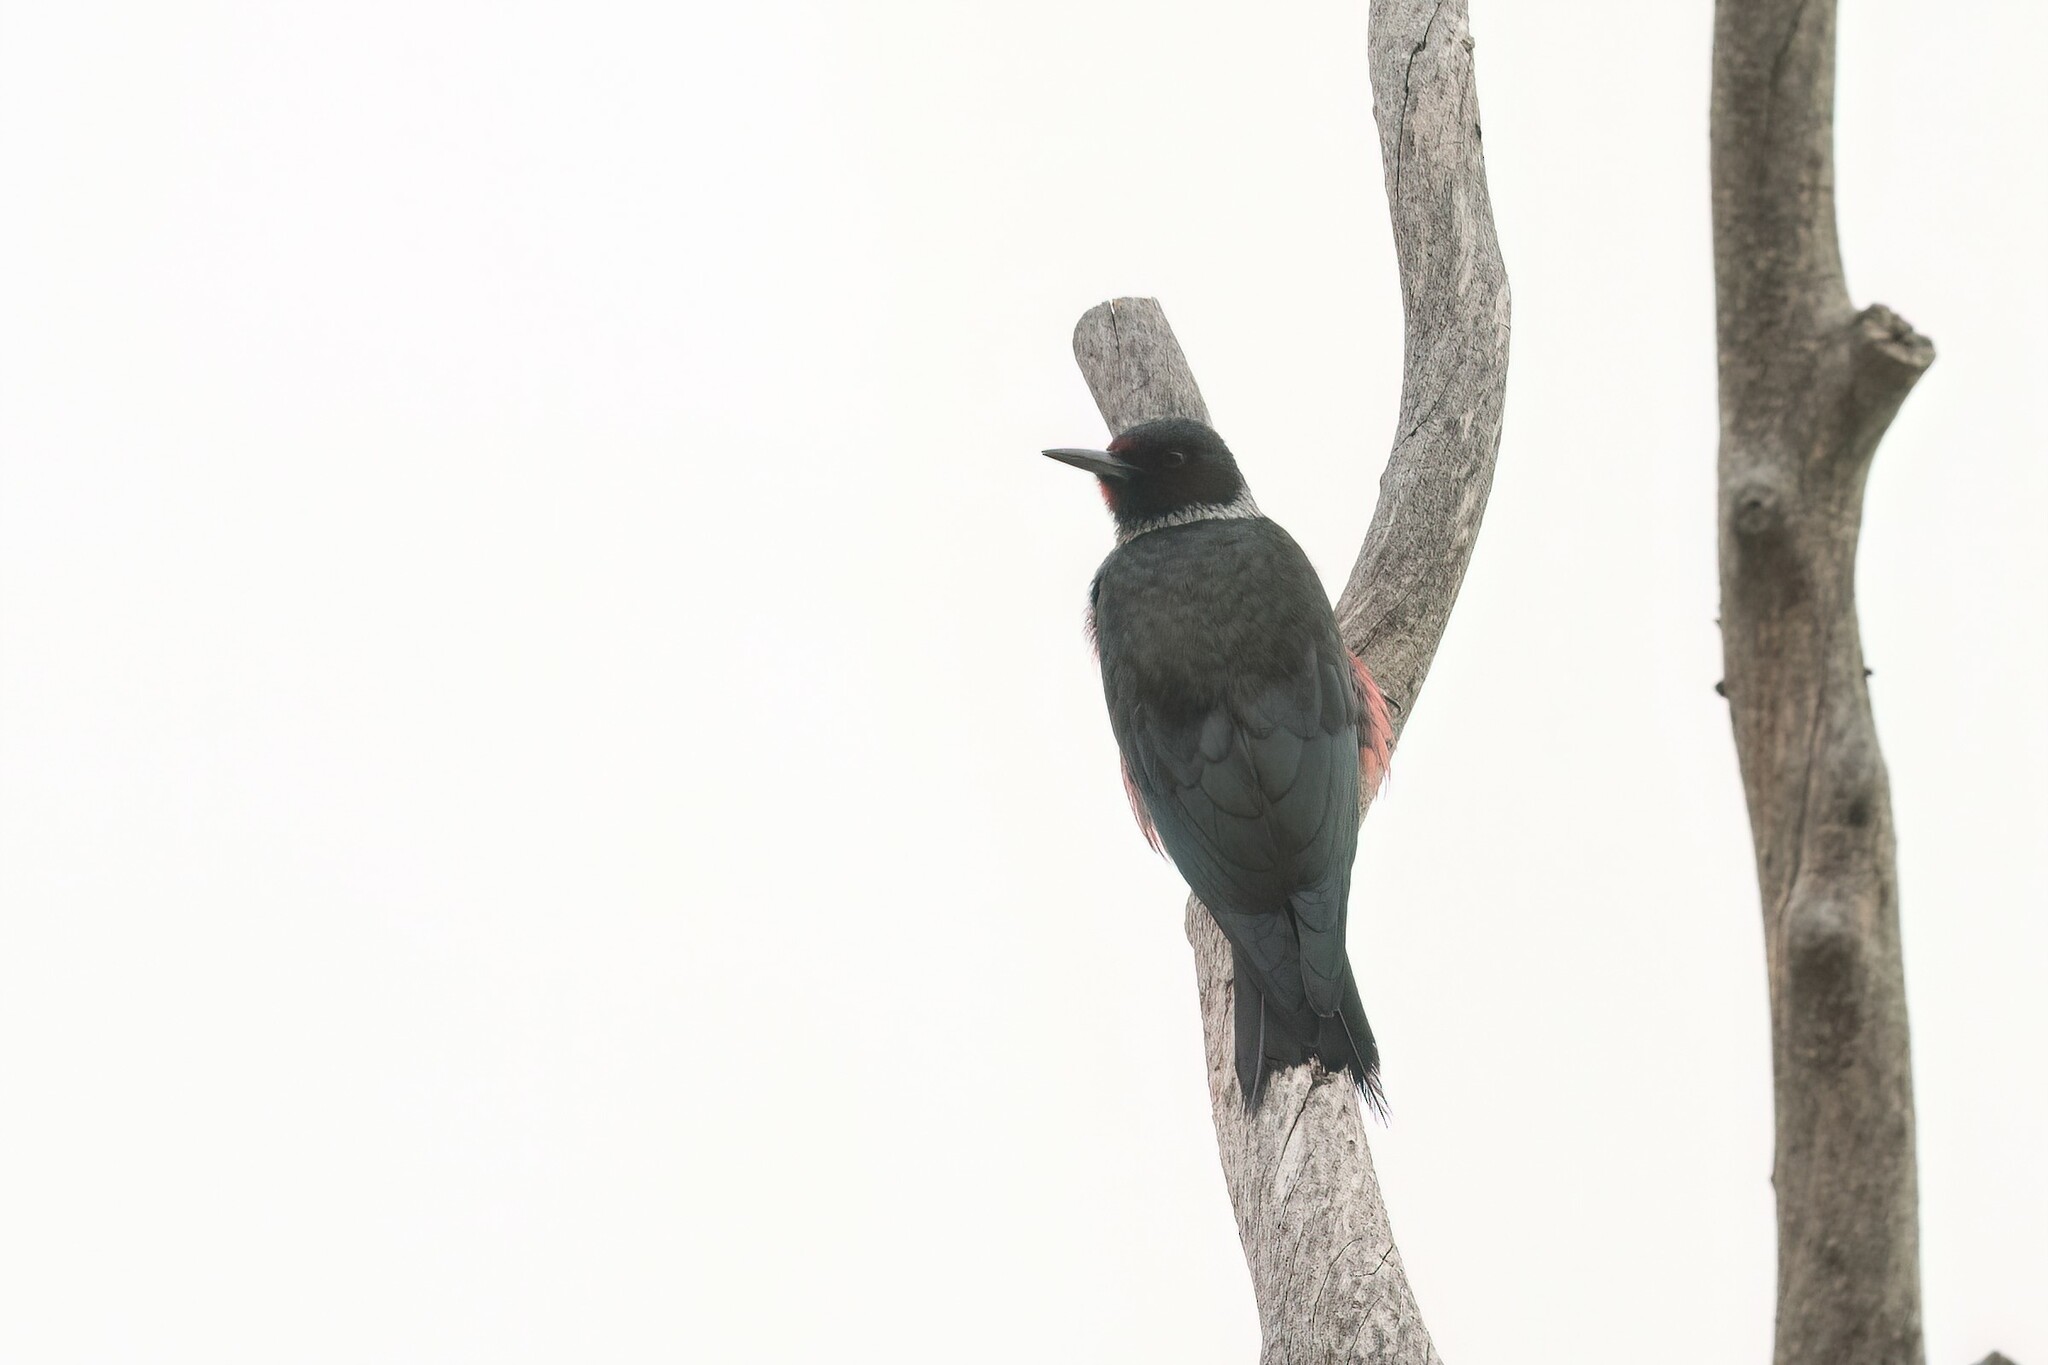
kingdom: Animalia
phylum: Chordata
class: Aves
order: Piciformes
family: Picidae
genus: Melanerpes
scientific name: Melanerpes lewis
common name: Lewis's woodpecker
